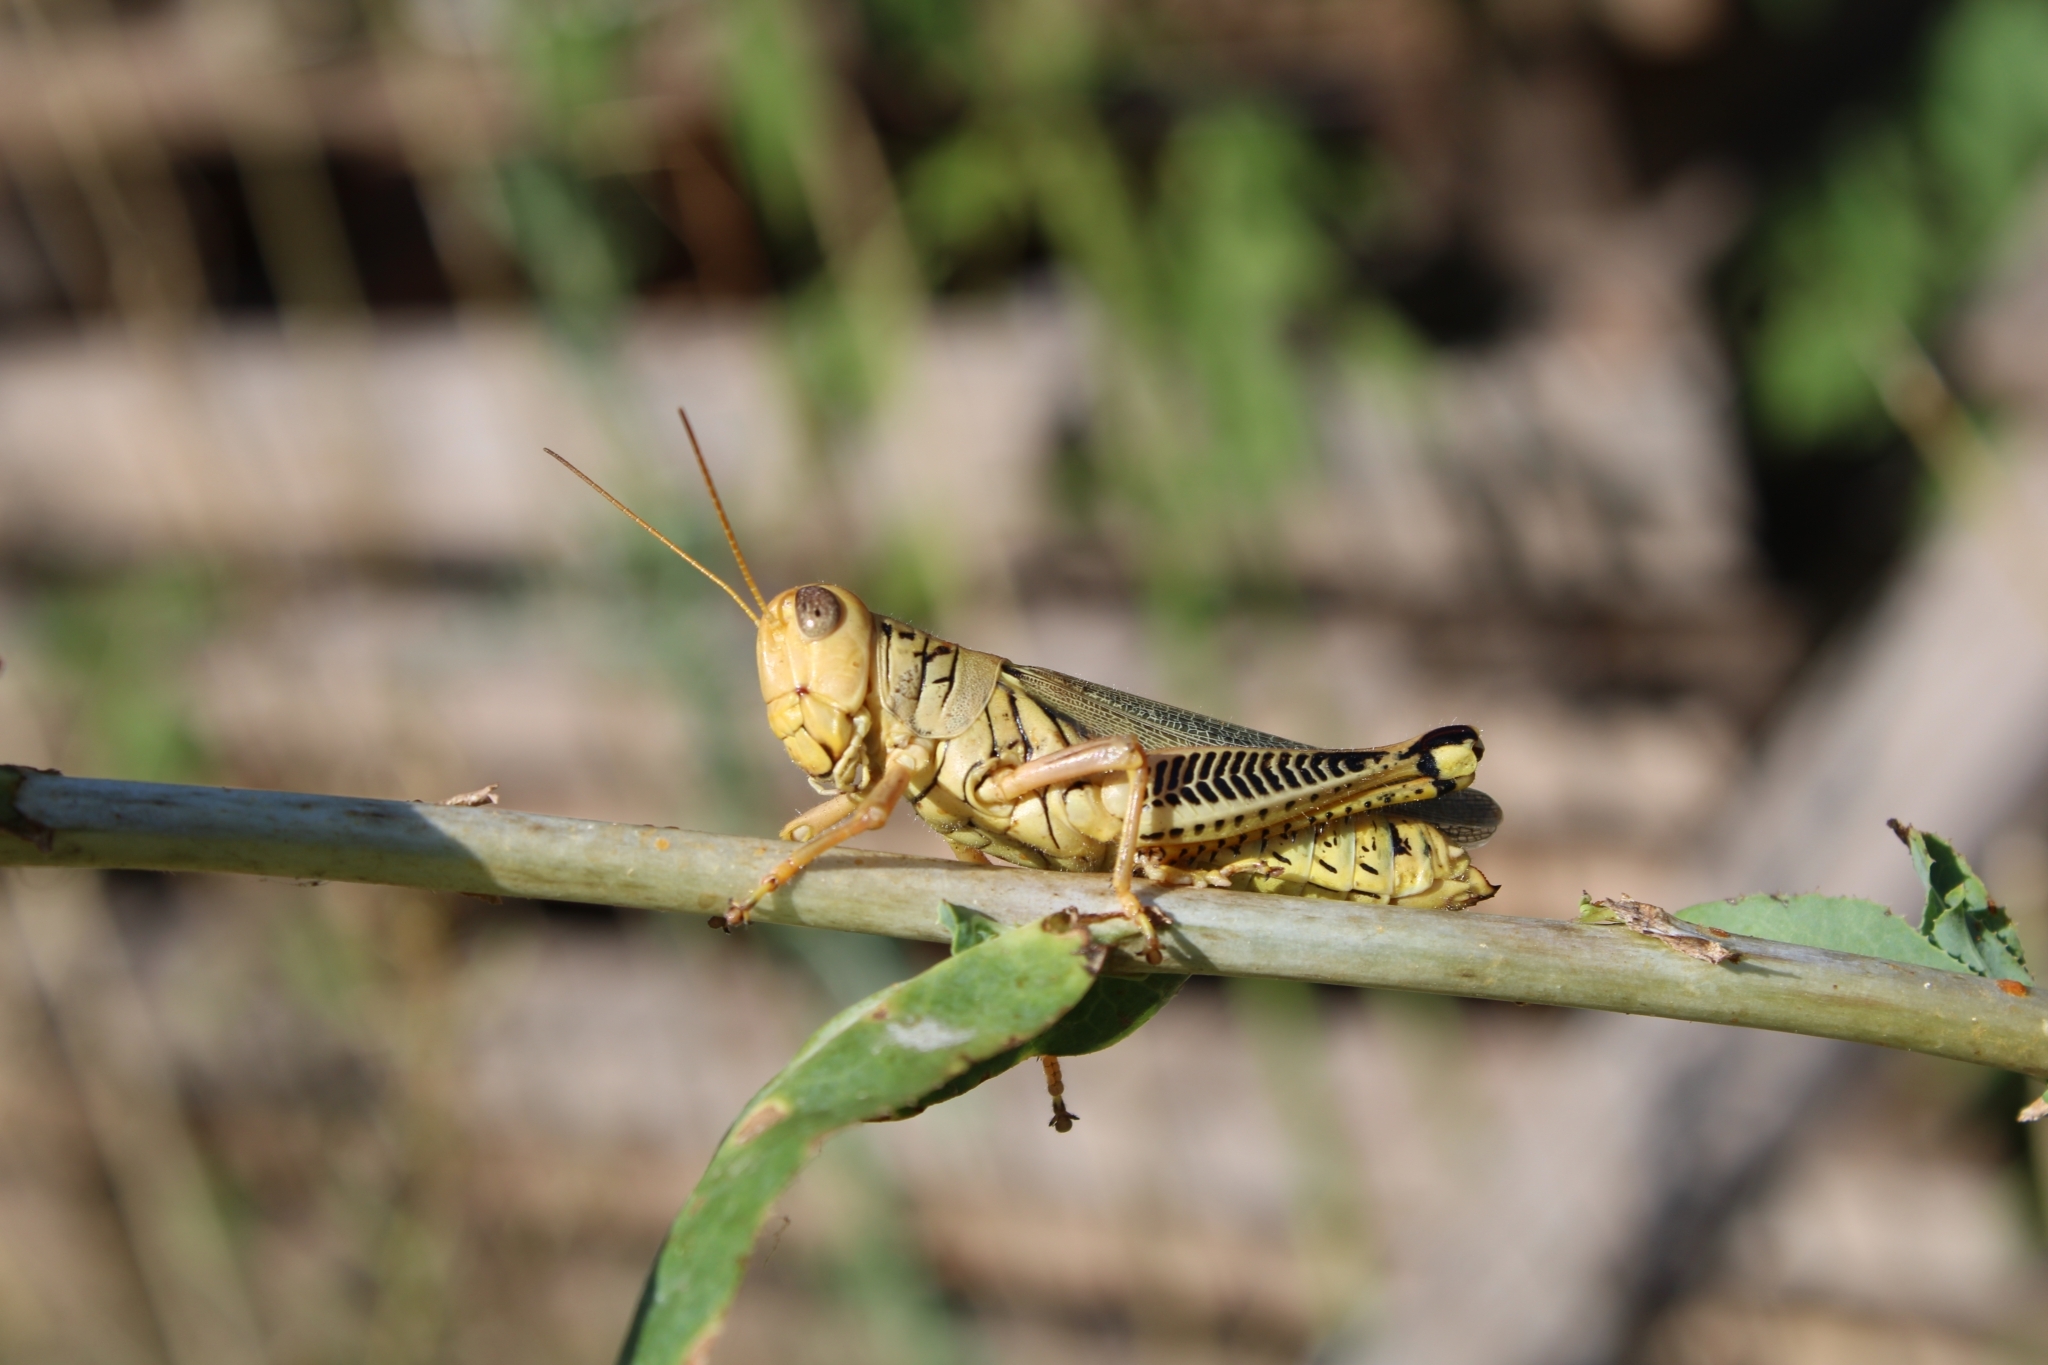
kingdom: Animalia
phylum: Arthropoda
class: Insecta
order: Orthoptera
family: Acrididae
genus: Melanoplus
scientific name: Melanoplus differentialis
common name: Differential grasshopper
